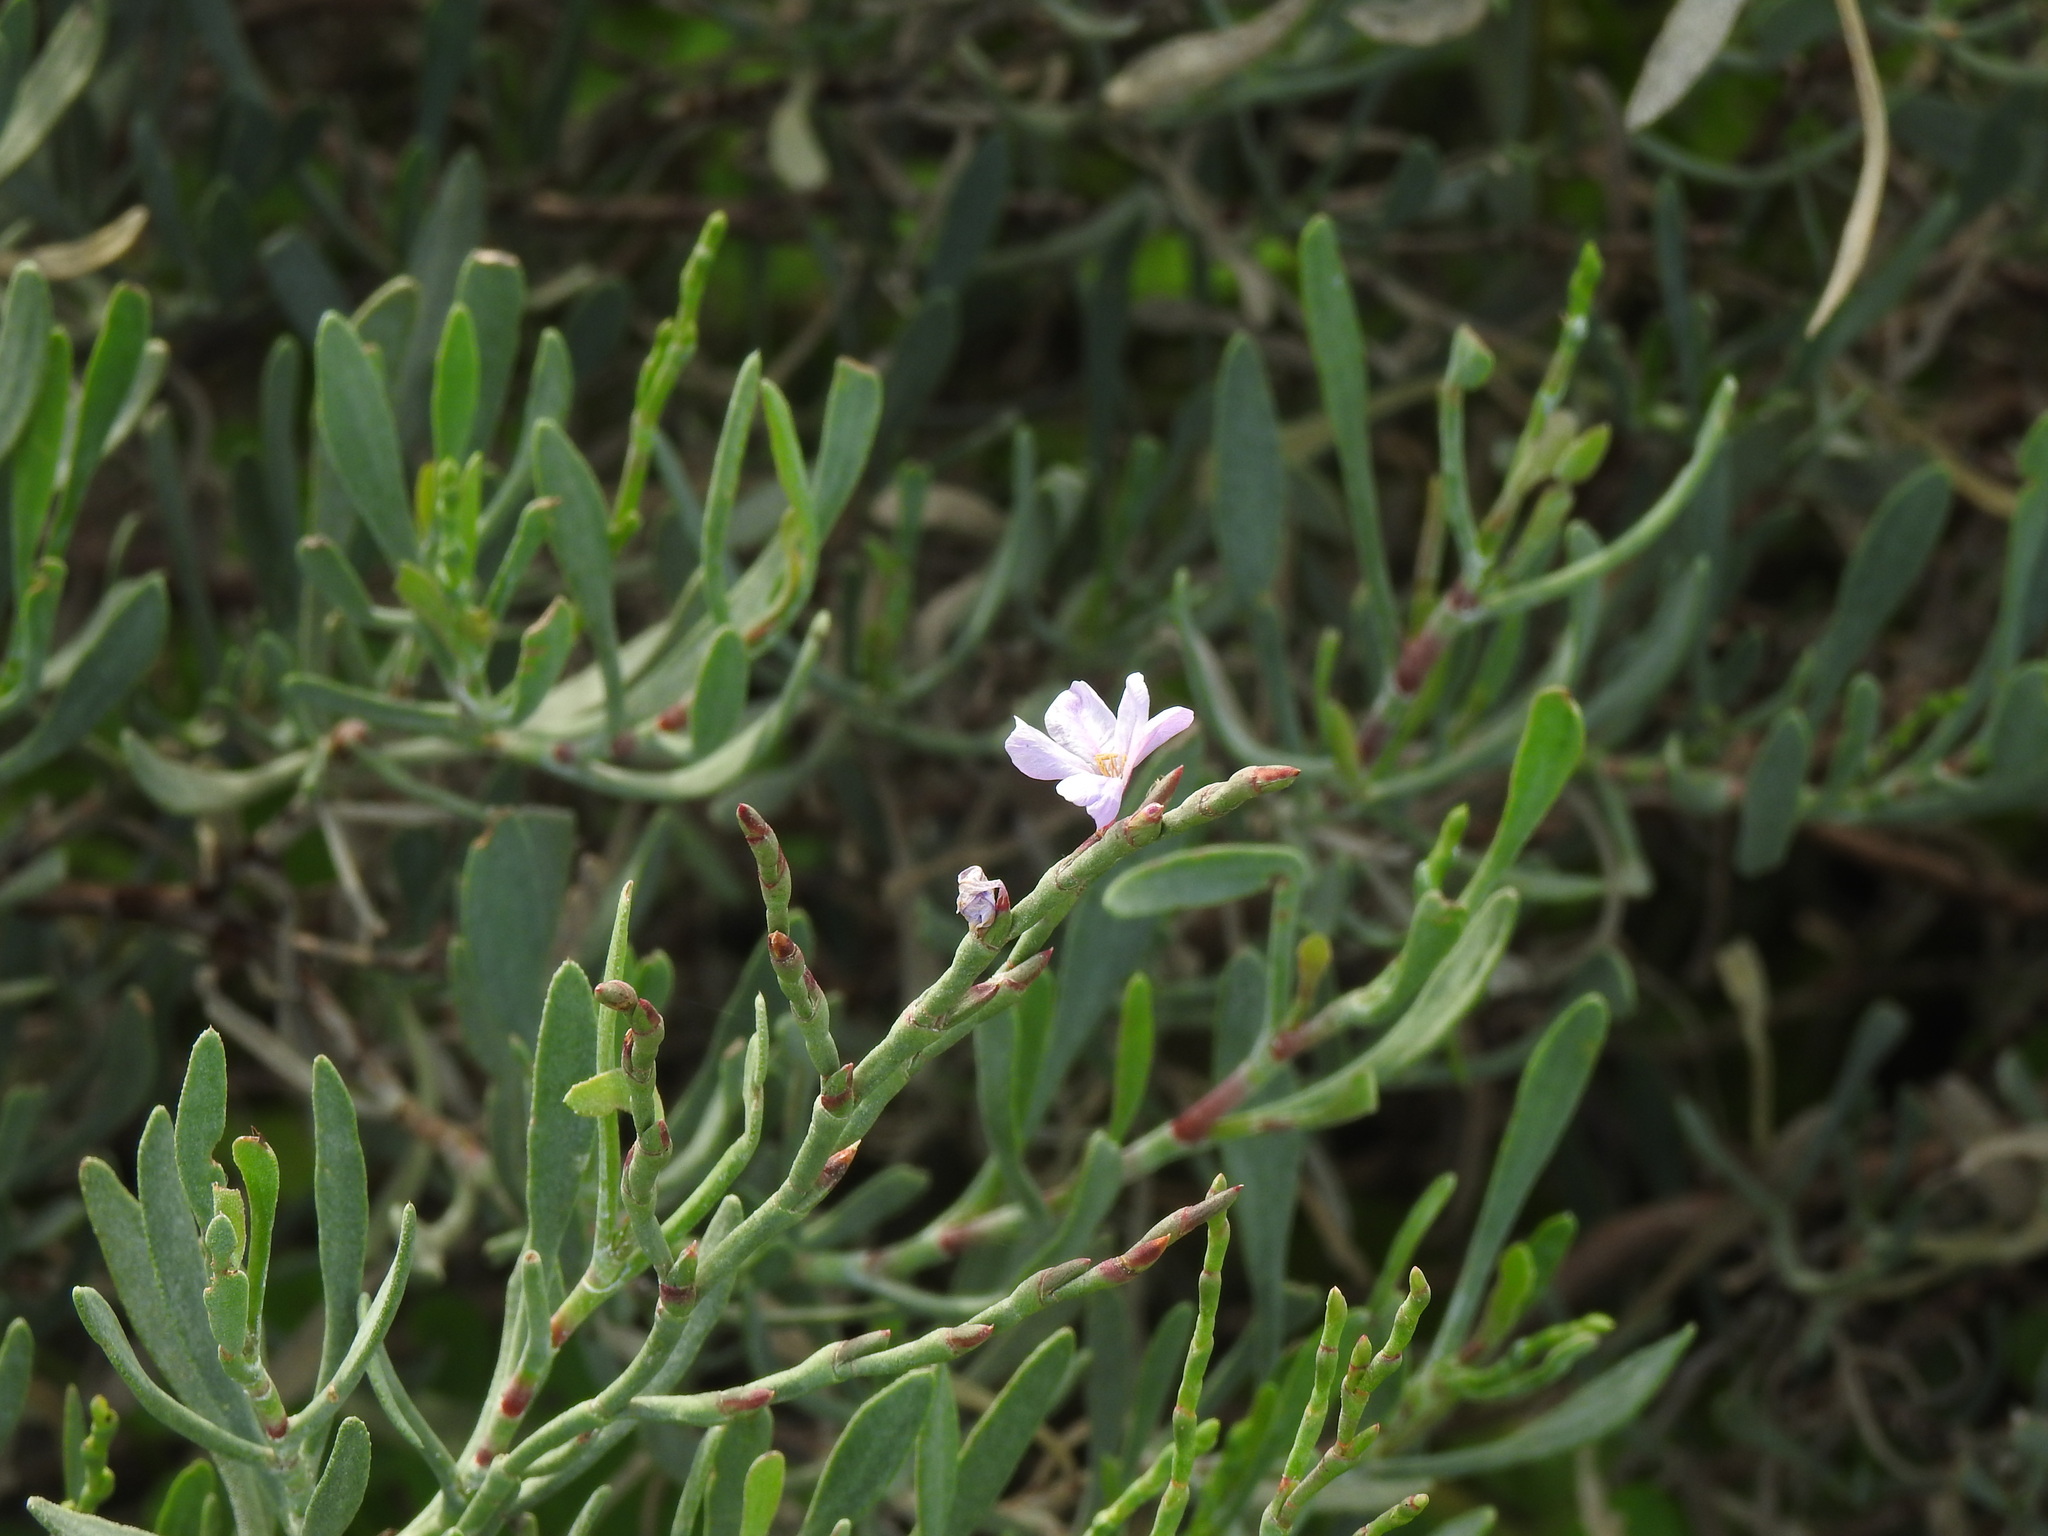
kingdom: Plantae
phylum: Tracheophyta
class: Magnoliopsida
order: Caryophyllales
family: Plumbaginaceae
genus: Limoniastrum
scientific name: Limoniastrum monopetalum
